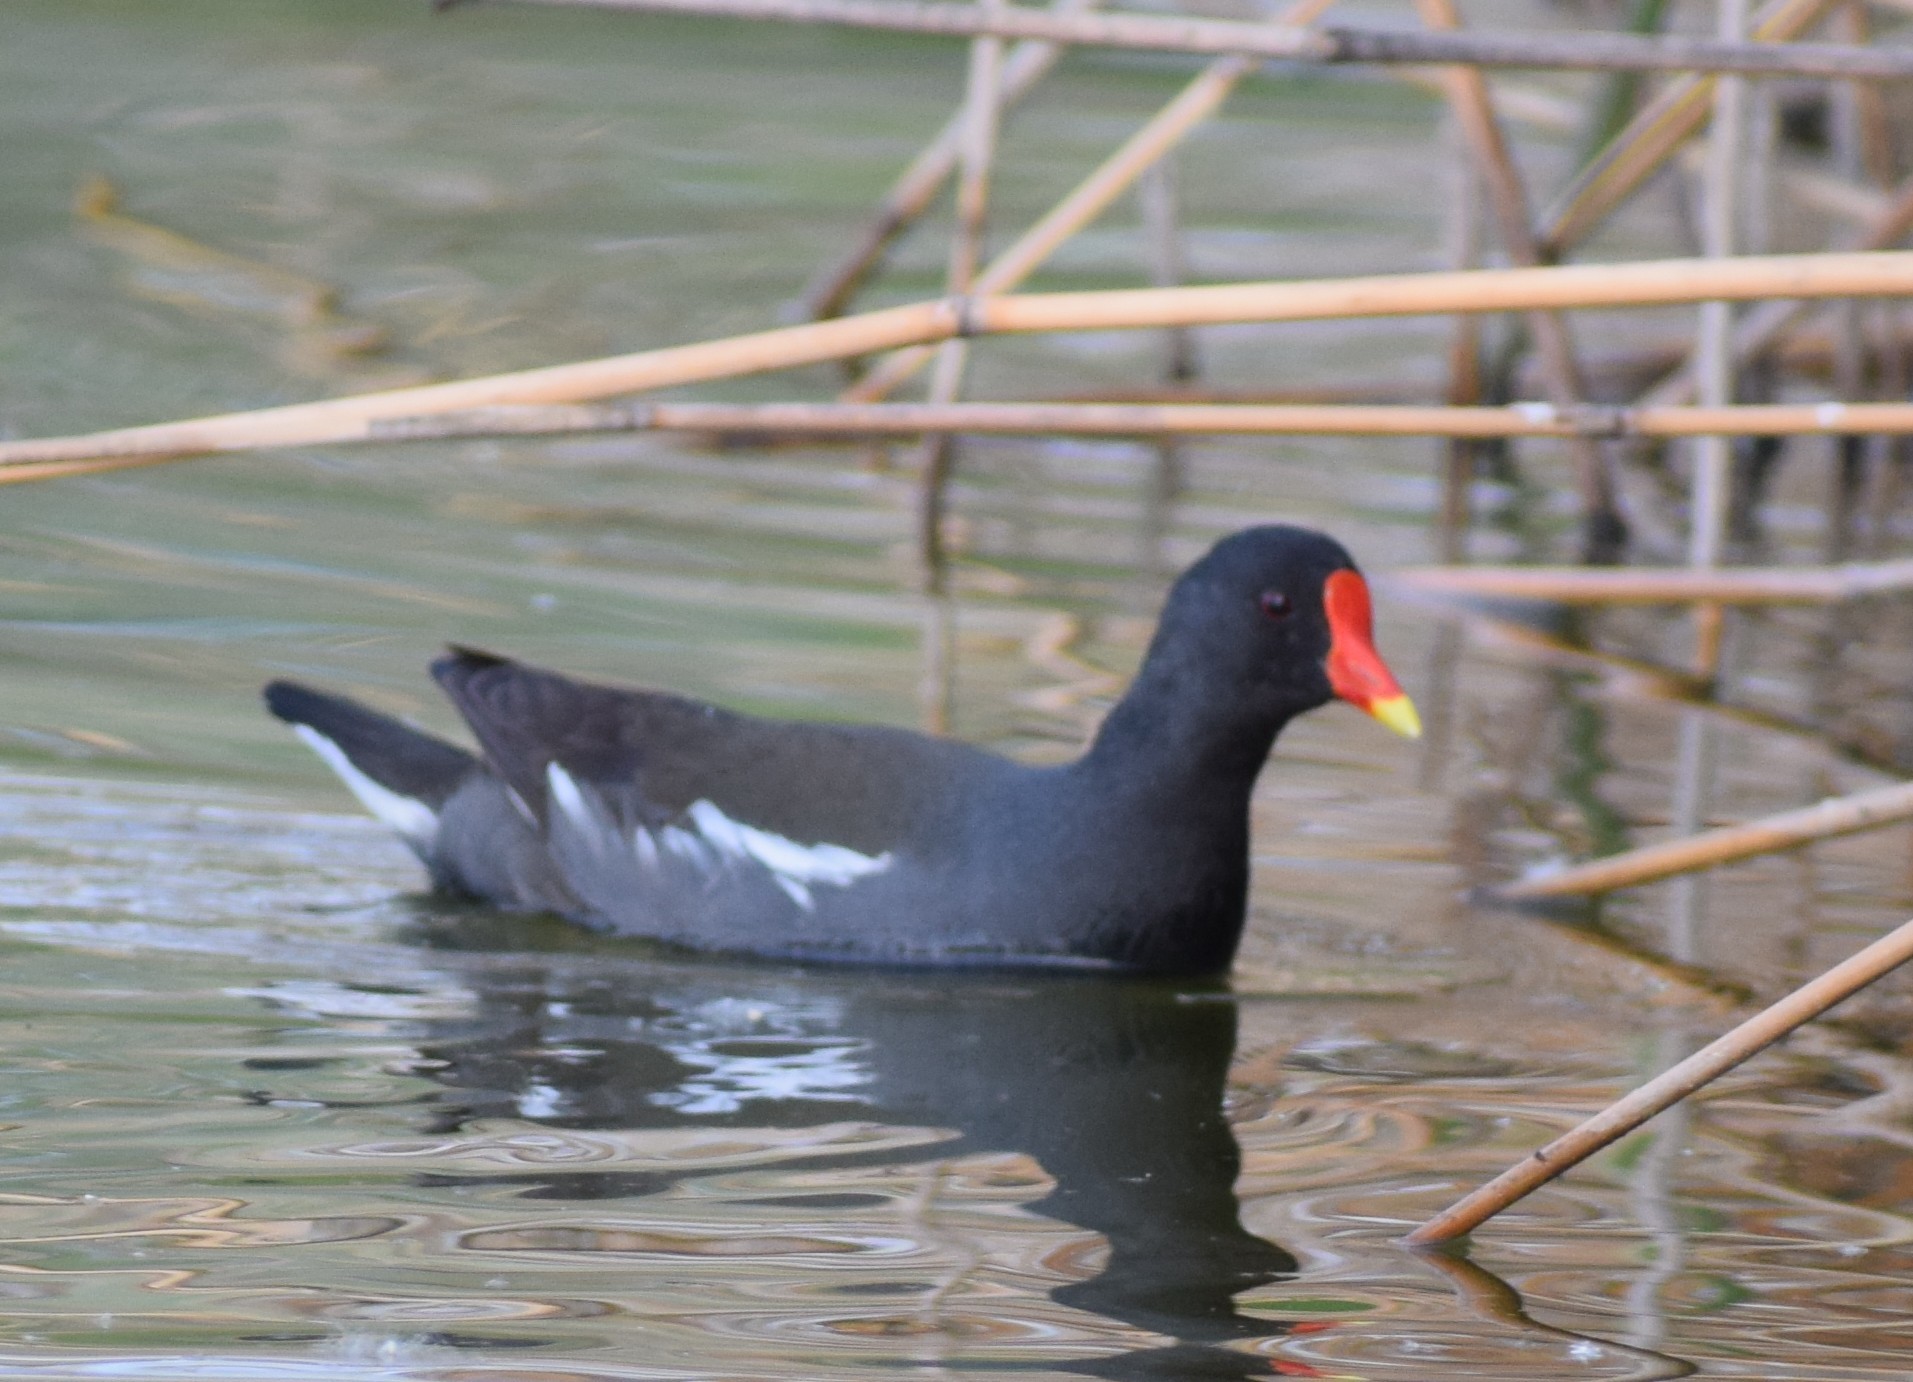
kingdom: Animalia
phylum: Chordata
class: Aves
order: Gruiformes
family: Rallidae
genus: Gallinula
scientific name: Gallinula chloropus
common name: Common moorhen
